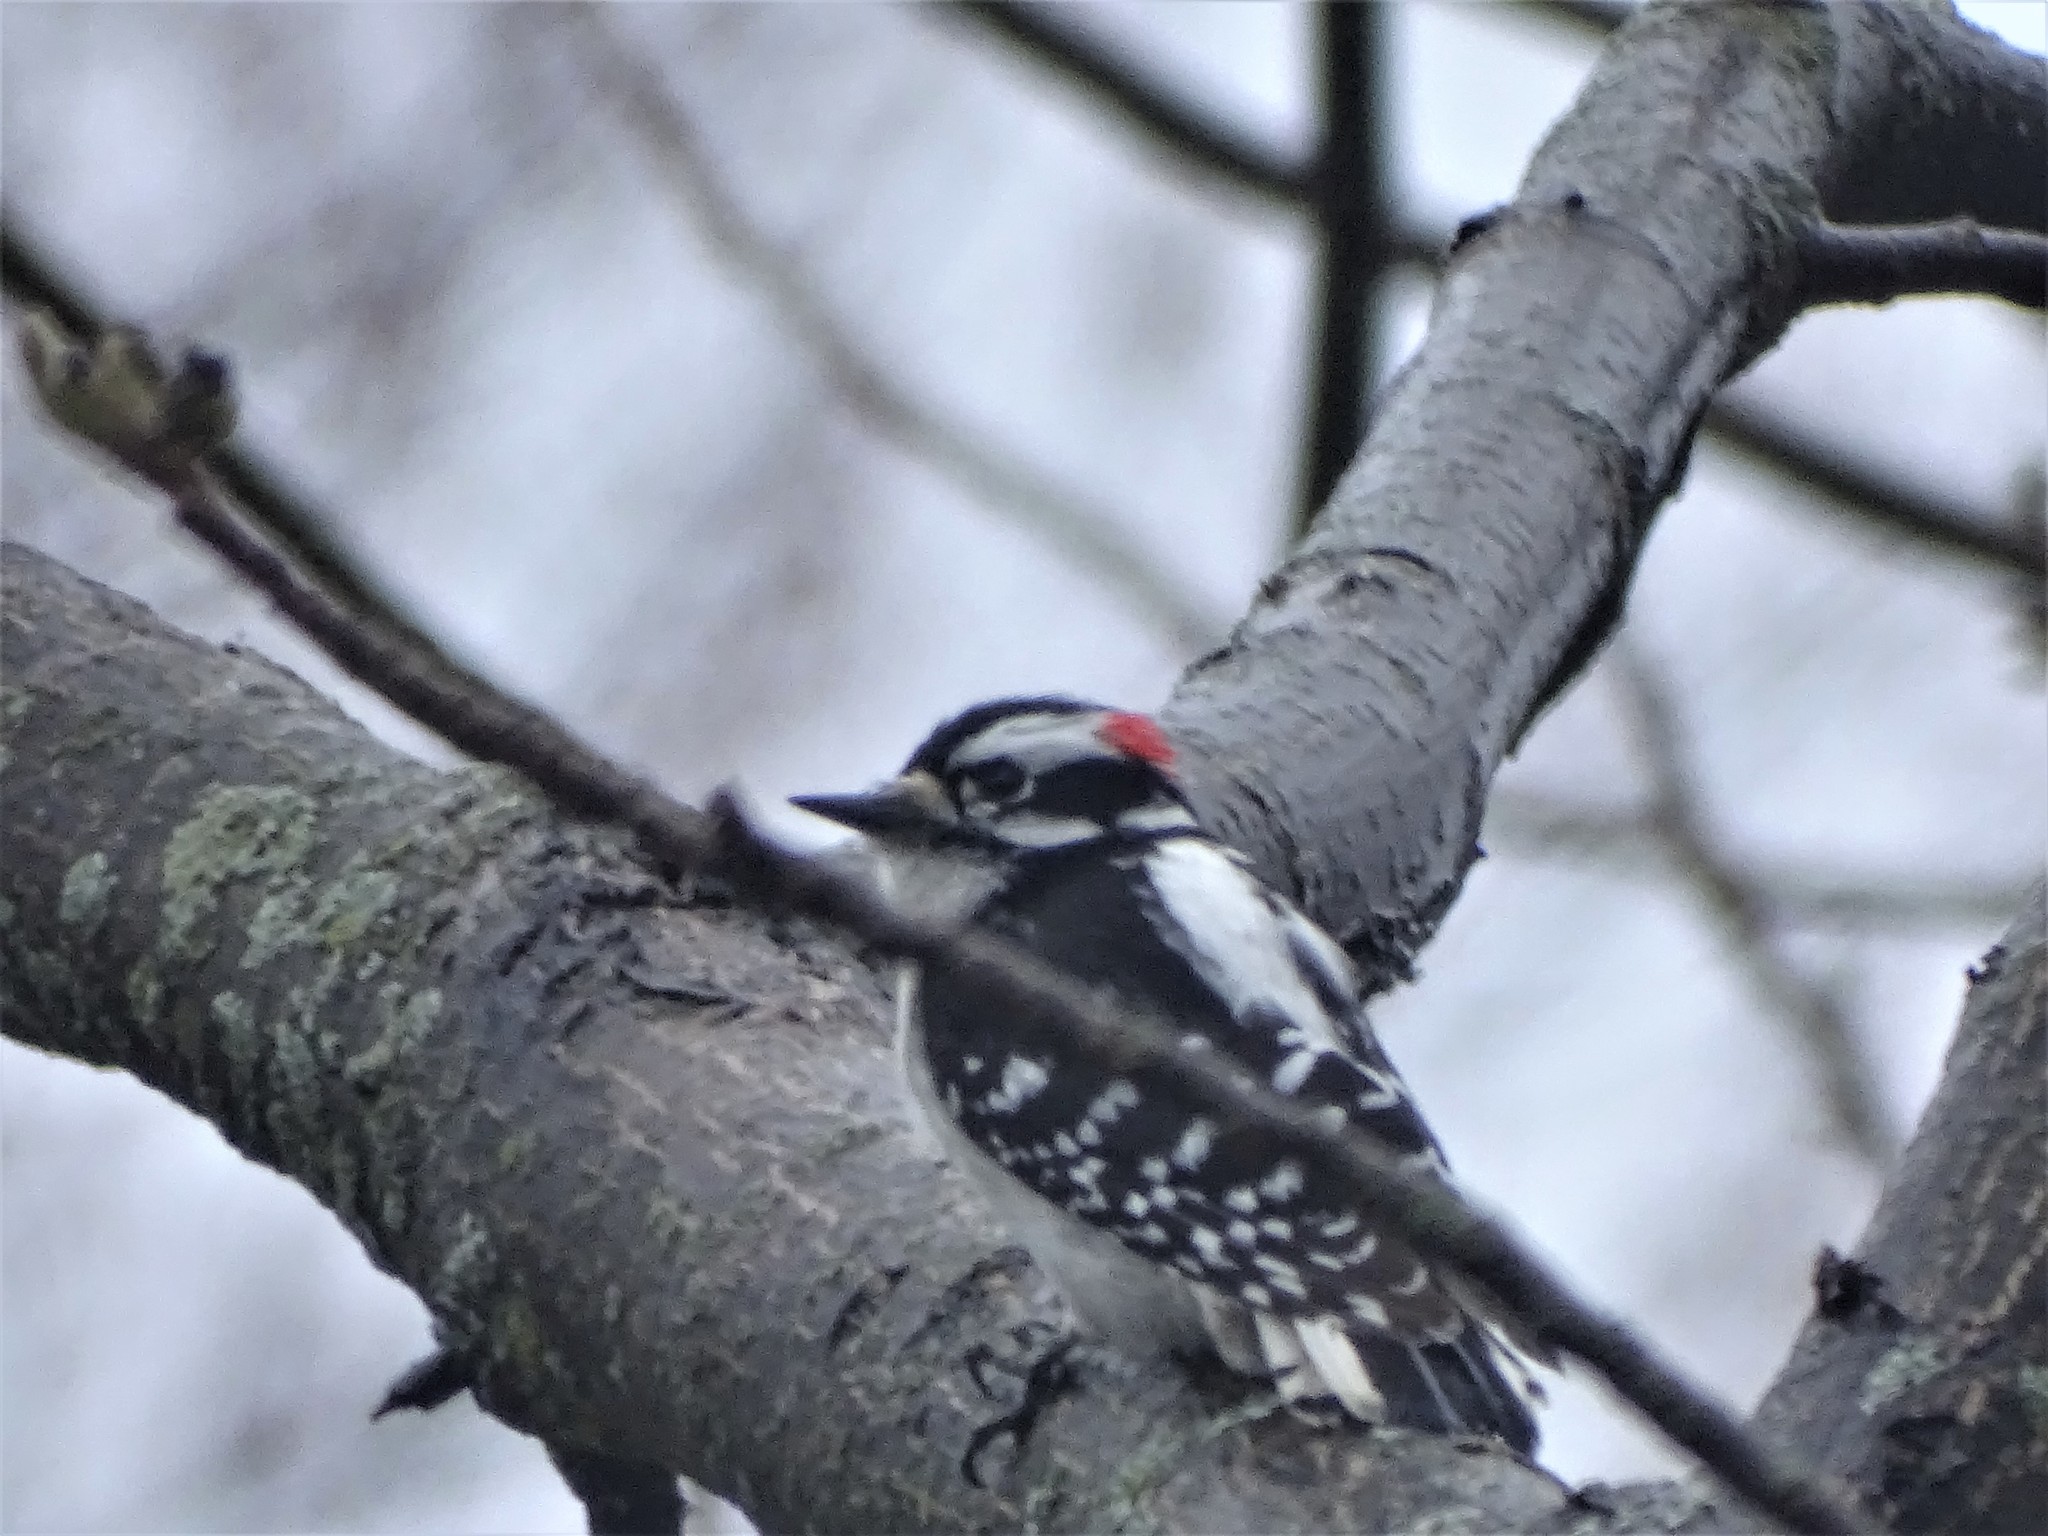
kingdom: Animalia
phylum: Chordata
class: Aves
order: Piciformes
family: Picidae
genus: Dryobates
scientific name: Dryobates pubescens
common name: Downy woodpecker
